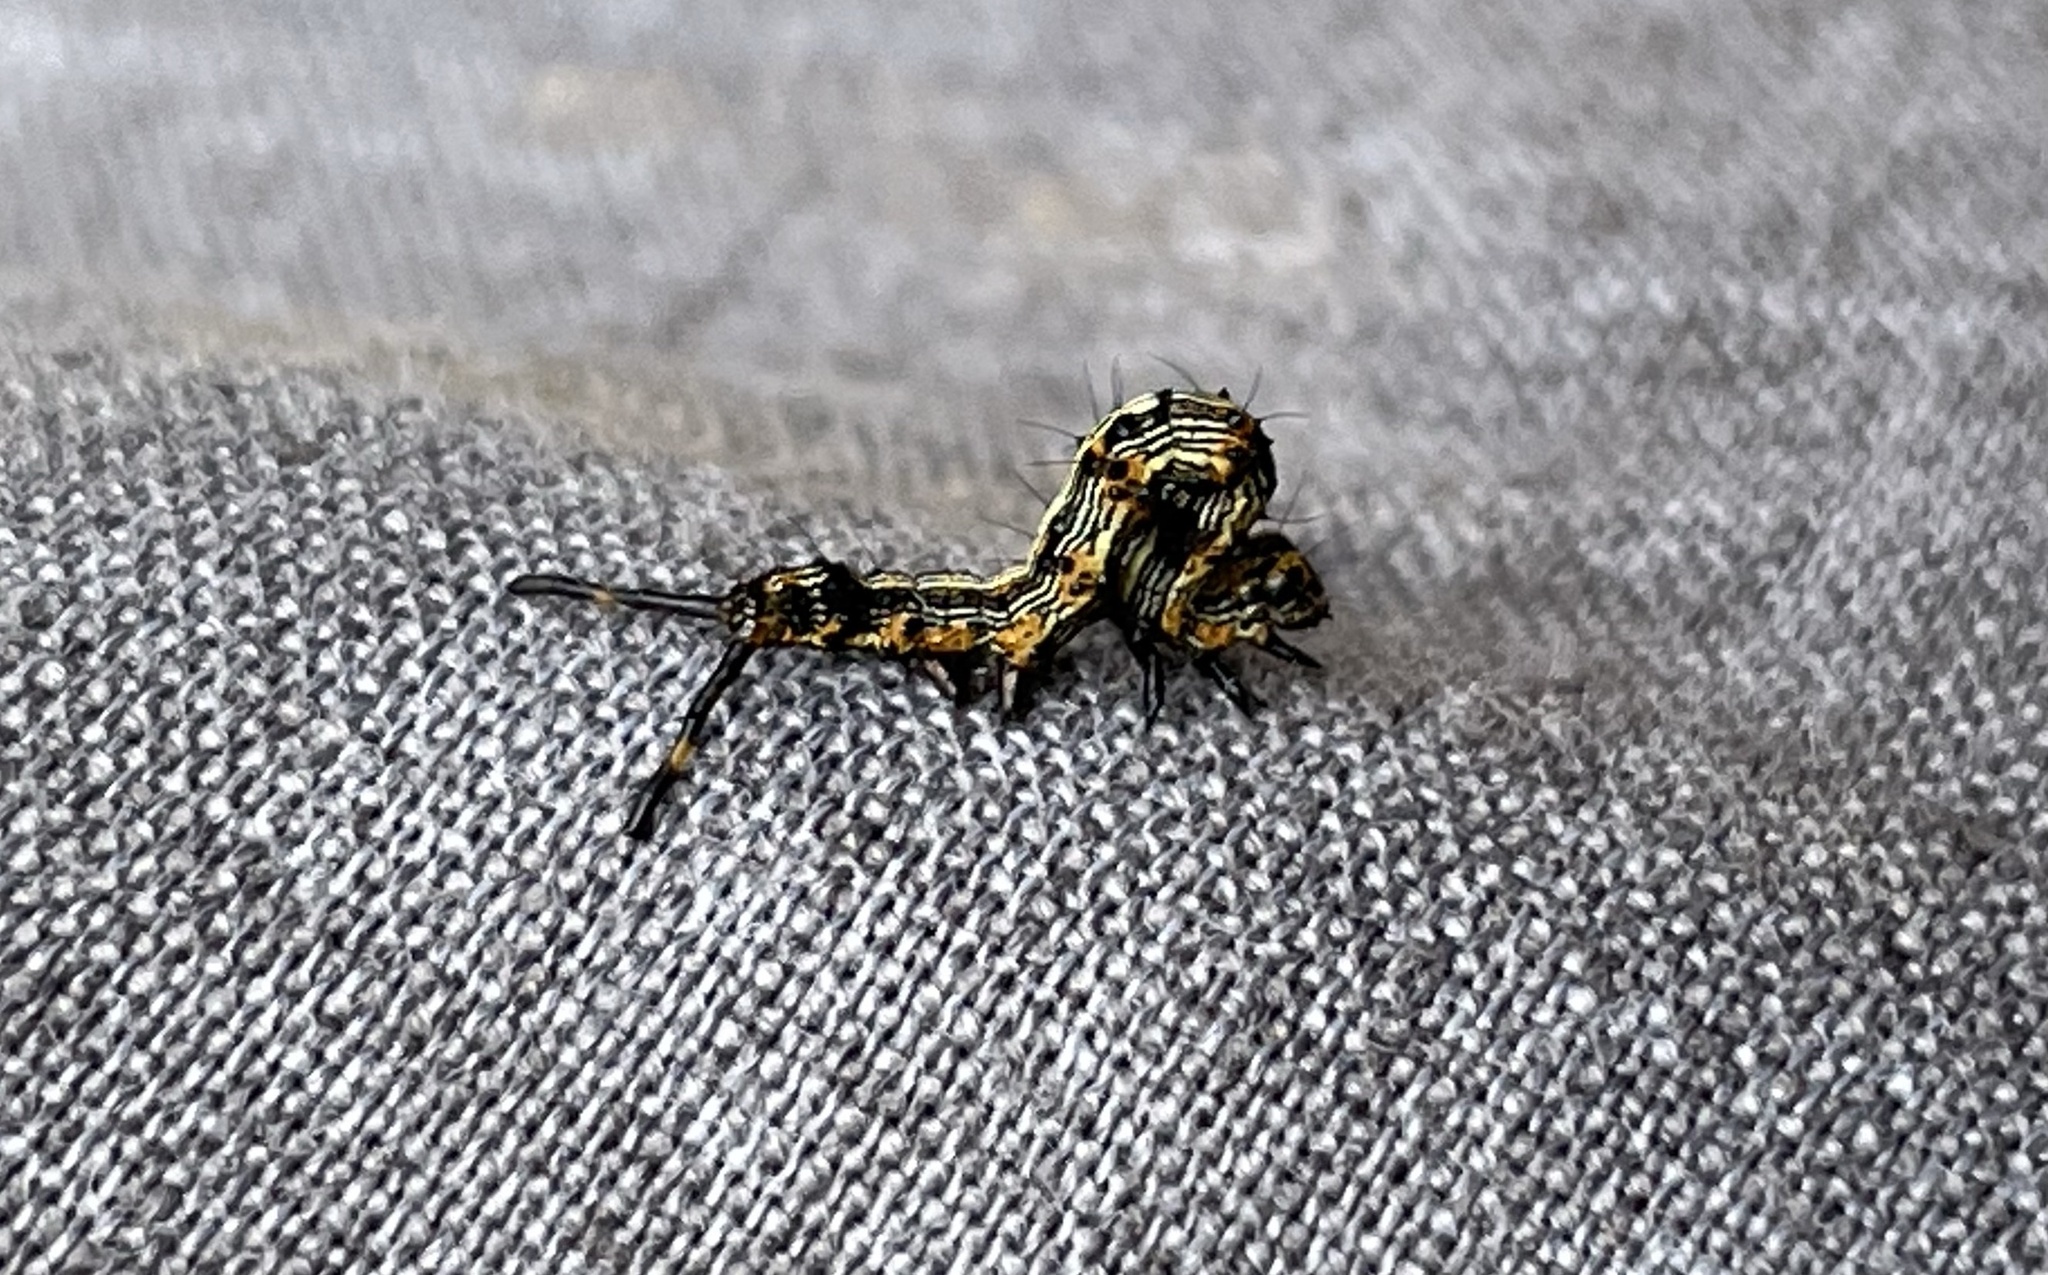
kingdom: Animalia
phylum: Arthropoda
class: Insecta
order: Lepidoptera
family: Erebidae
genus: Selenisa
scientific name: Selenisa sueroides
